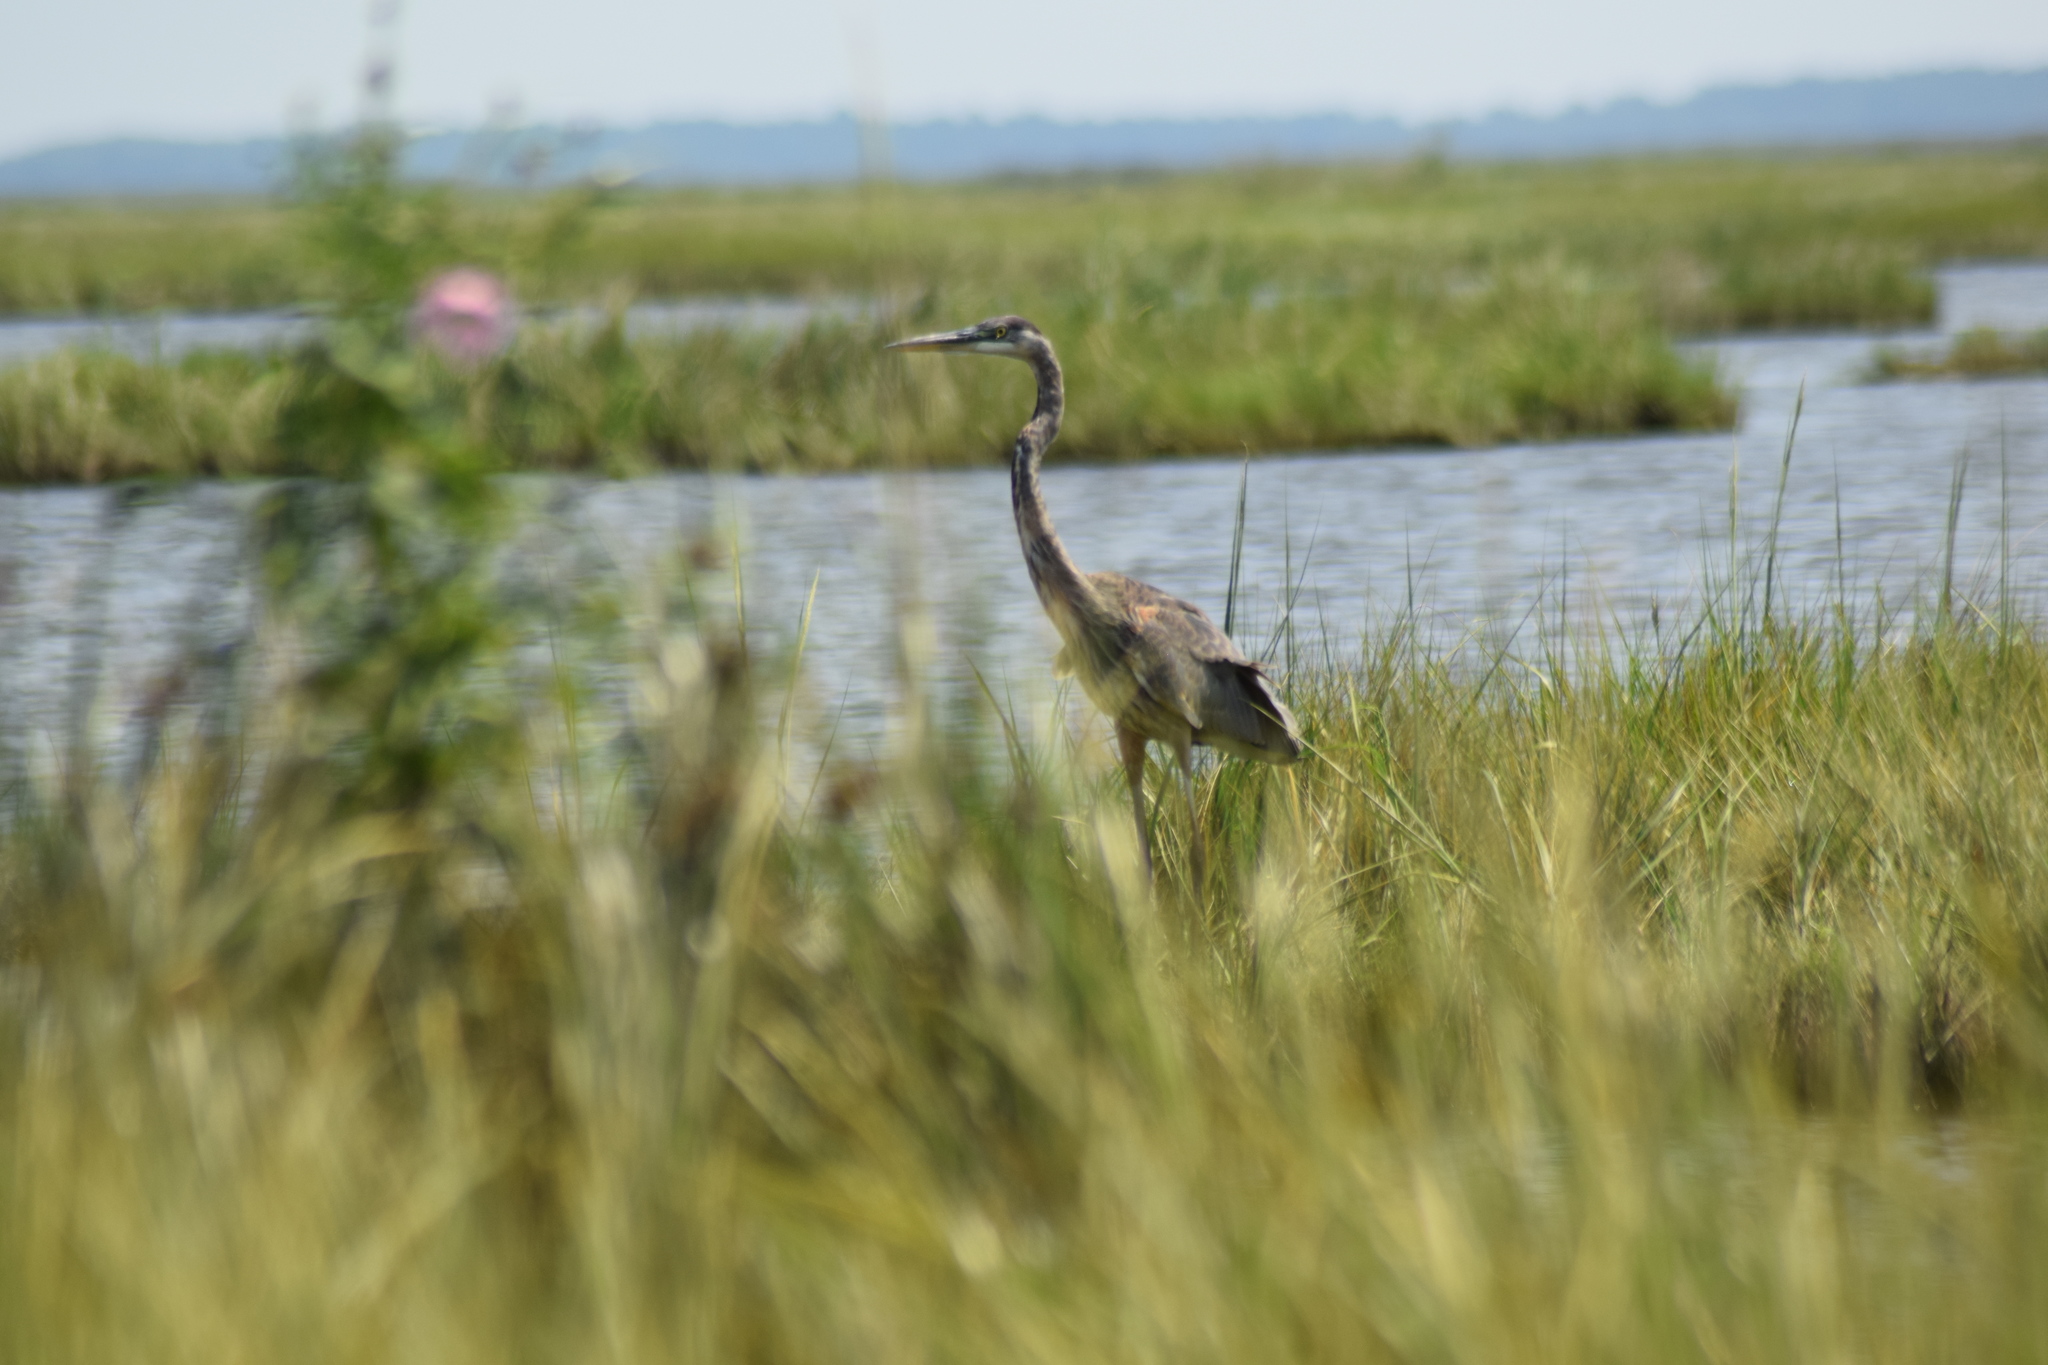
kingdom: Animalia
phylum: Chordata
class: Aves
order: Pelecaniformes
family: Ardeidae
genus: Ardea
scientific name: Ardea herodias
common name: Great blue heron
